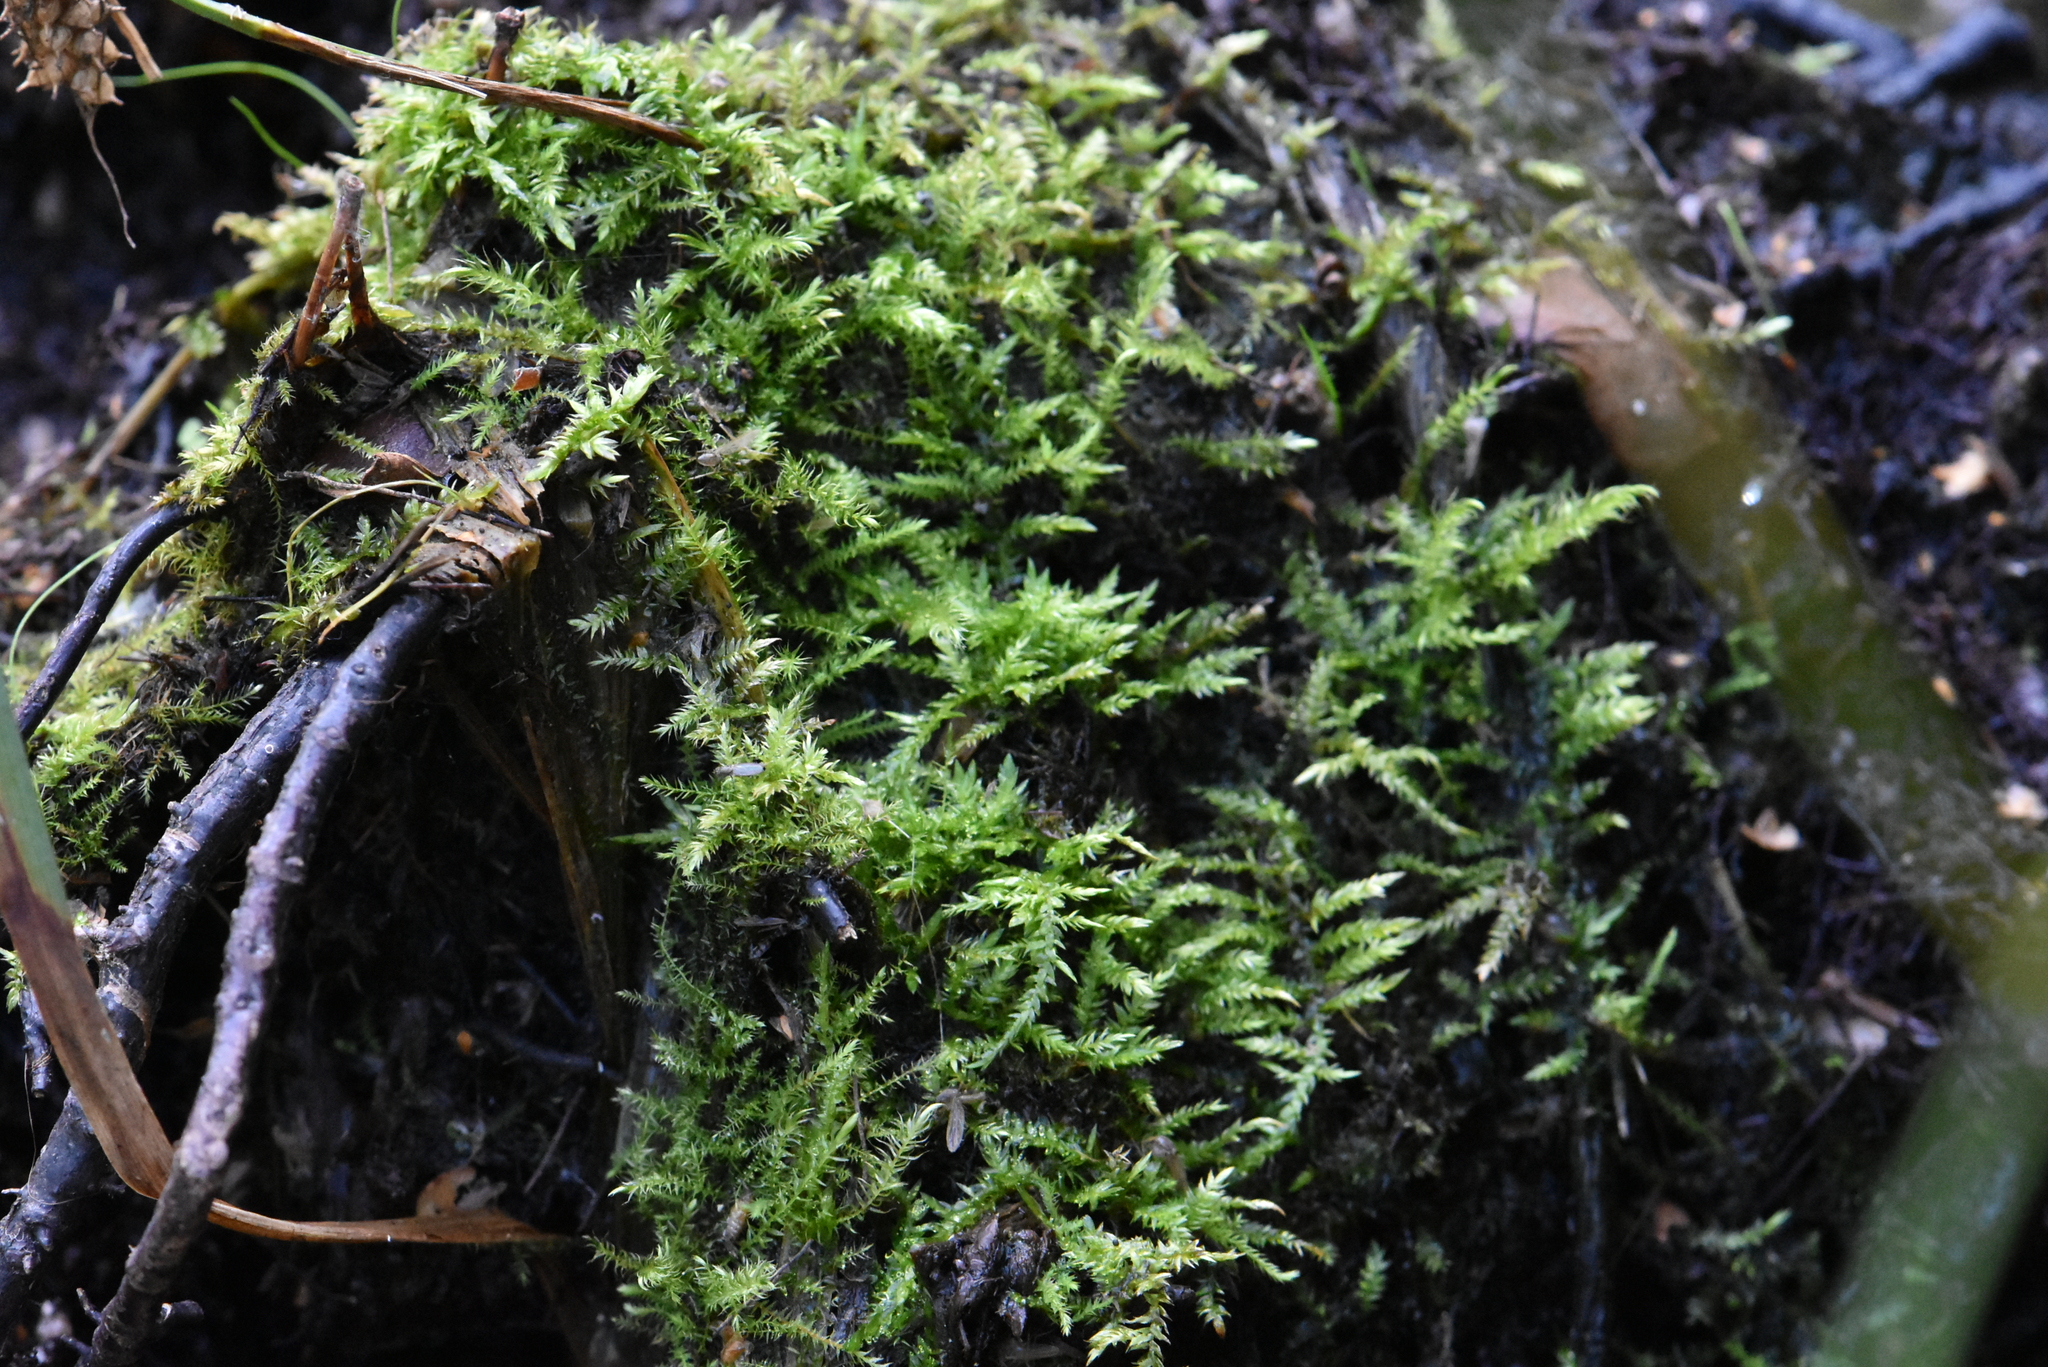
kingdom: Plantae
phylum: Bryophyta
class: Bryopsida
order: Hypnales
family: Pylaisiaceae
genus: Calliergonella
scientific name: Calliergonella cuspidata
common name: Common large wetland moss
